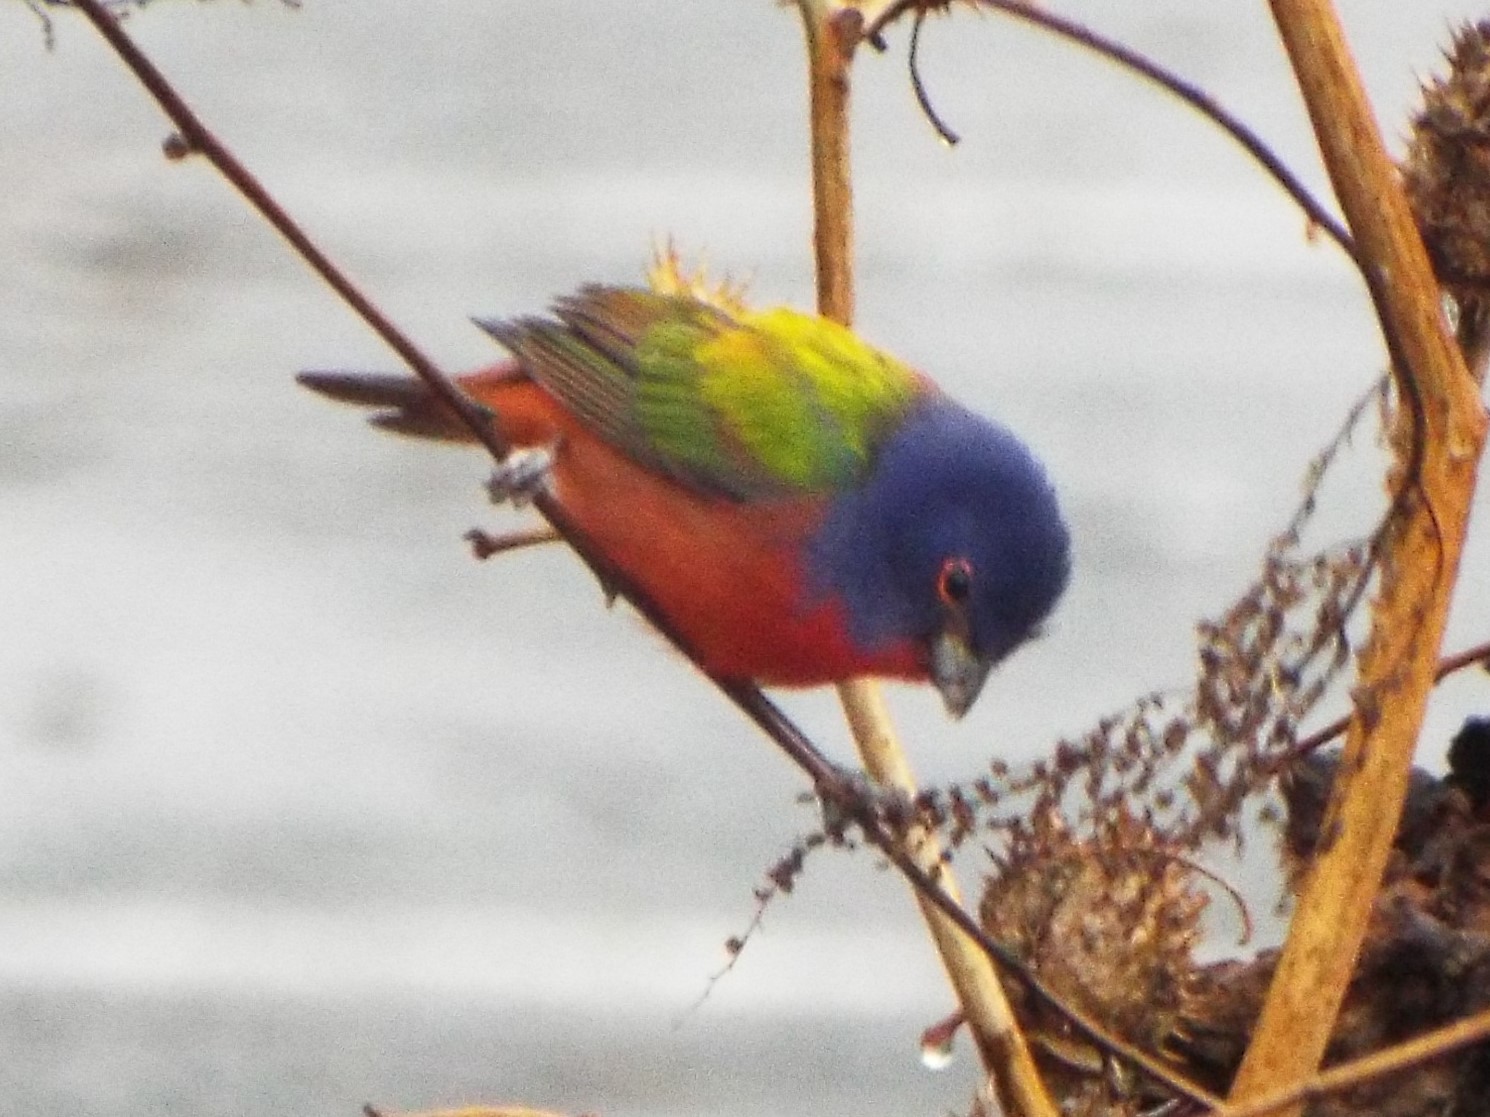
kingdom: Animalia
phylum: Chordata
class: Aves
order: Passeriformes
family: Cardinalidae
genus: Passerina
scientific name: Passerina ciris
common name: Painted bunting
